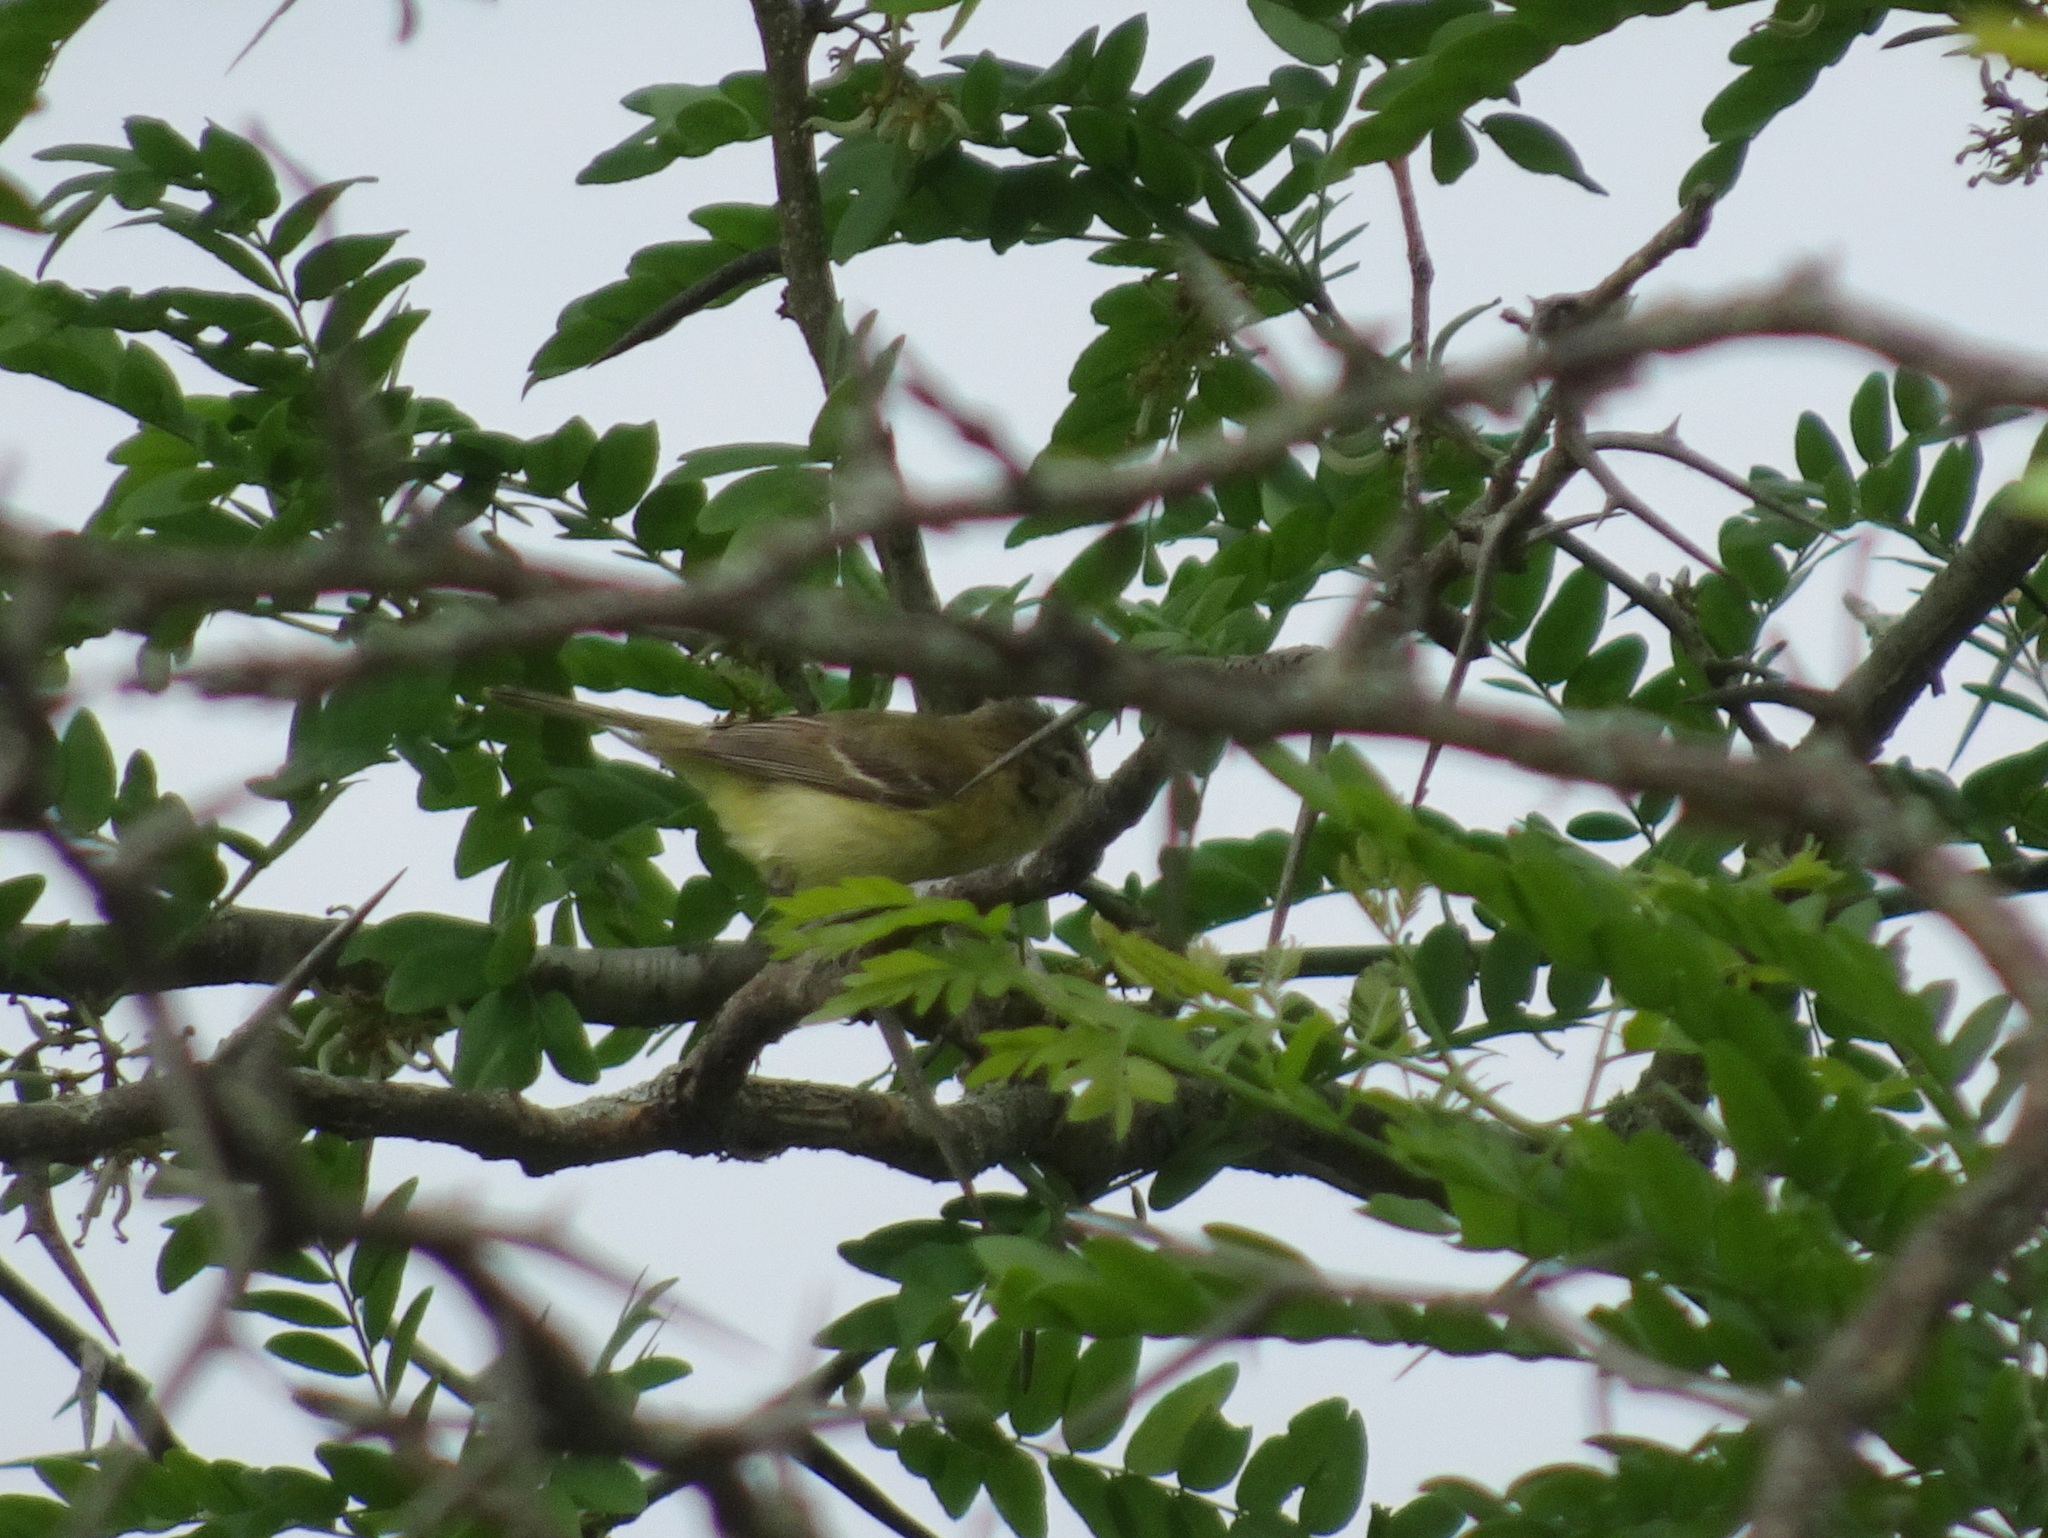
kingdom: Animalia
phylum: Chordata
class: Aves
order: Passeriformes
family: Vireonidae
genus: Vireo
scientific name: Vireo bellii
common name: Bell's vireo
